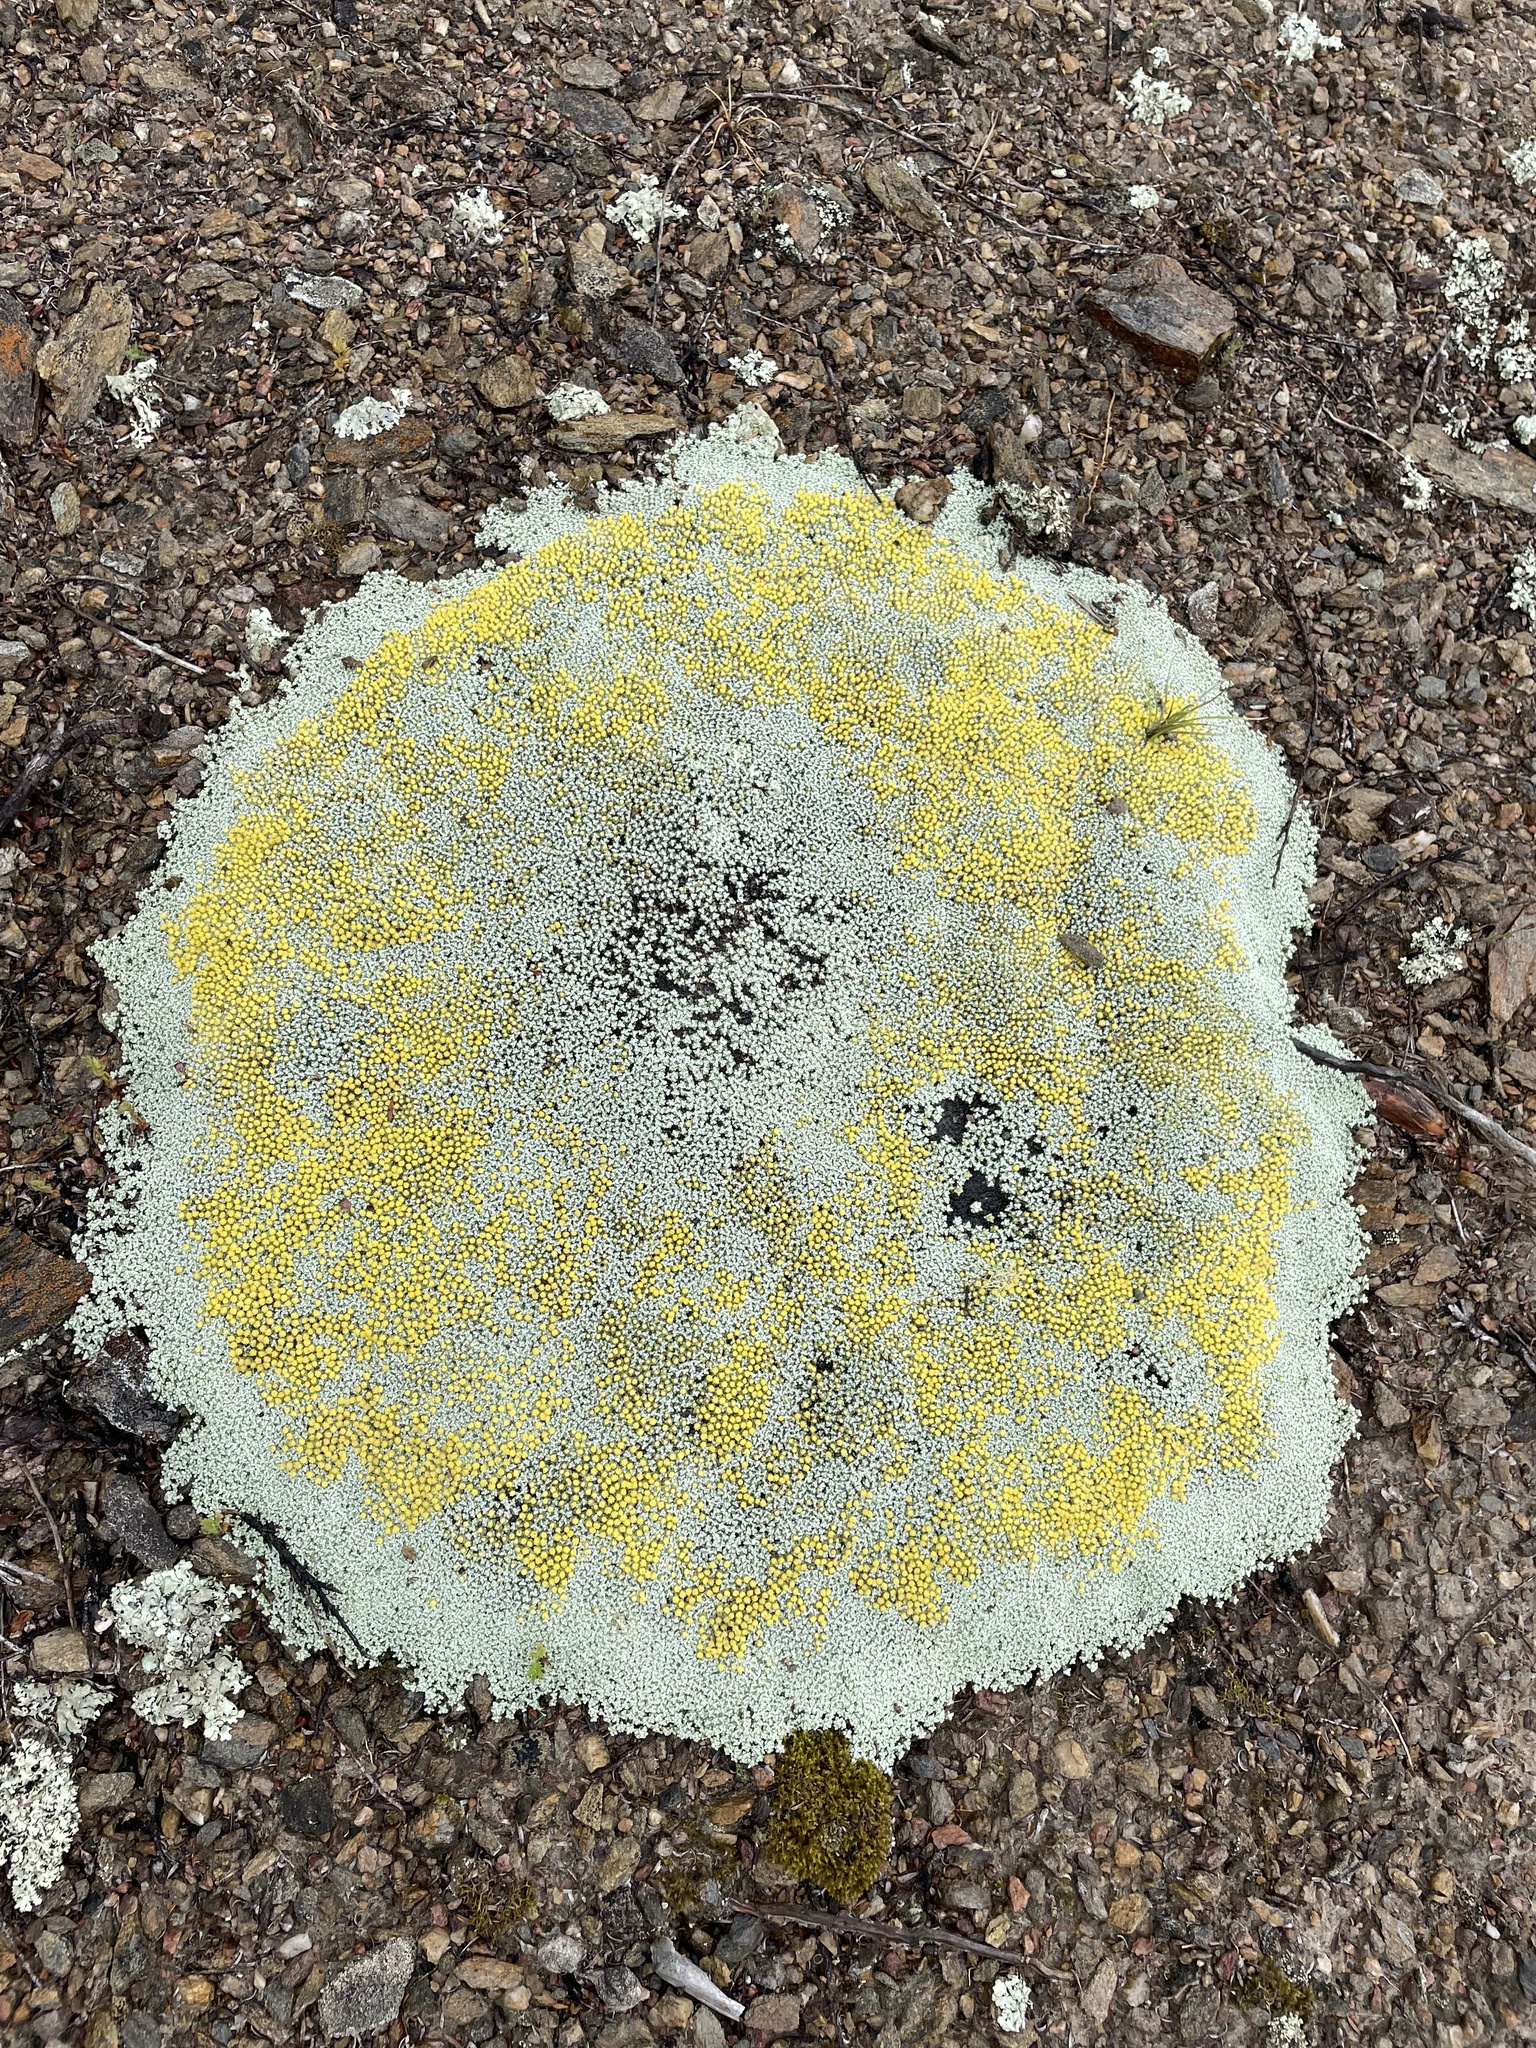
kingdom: Plantae
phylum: Tracheophyta
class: Magnoliopsida
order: Asterales
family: Asteraceae
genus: Raoulia
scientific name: Raoulia australis
